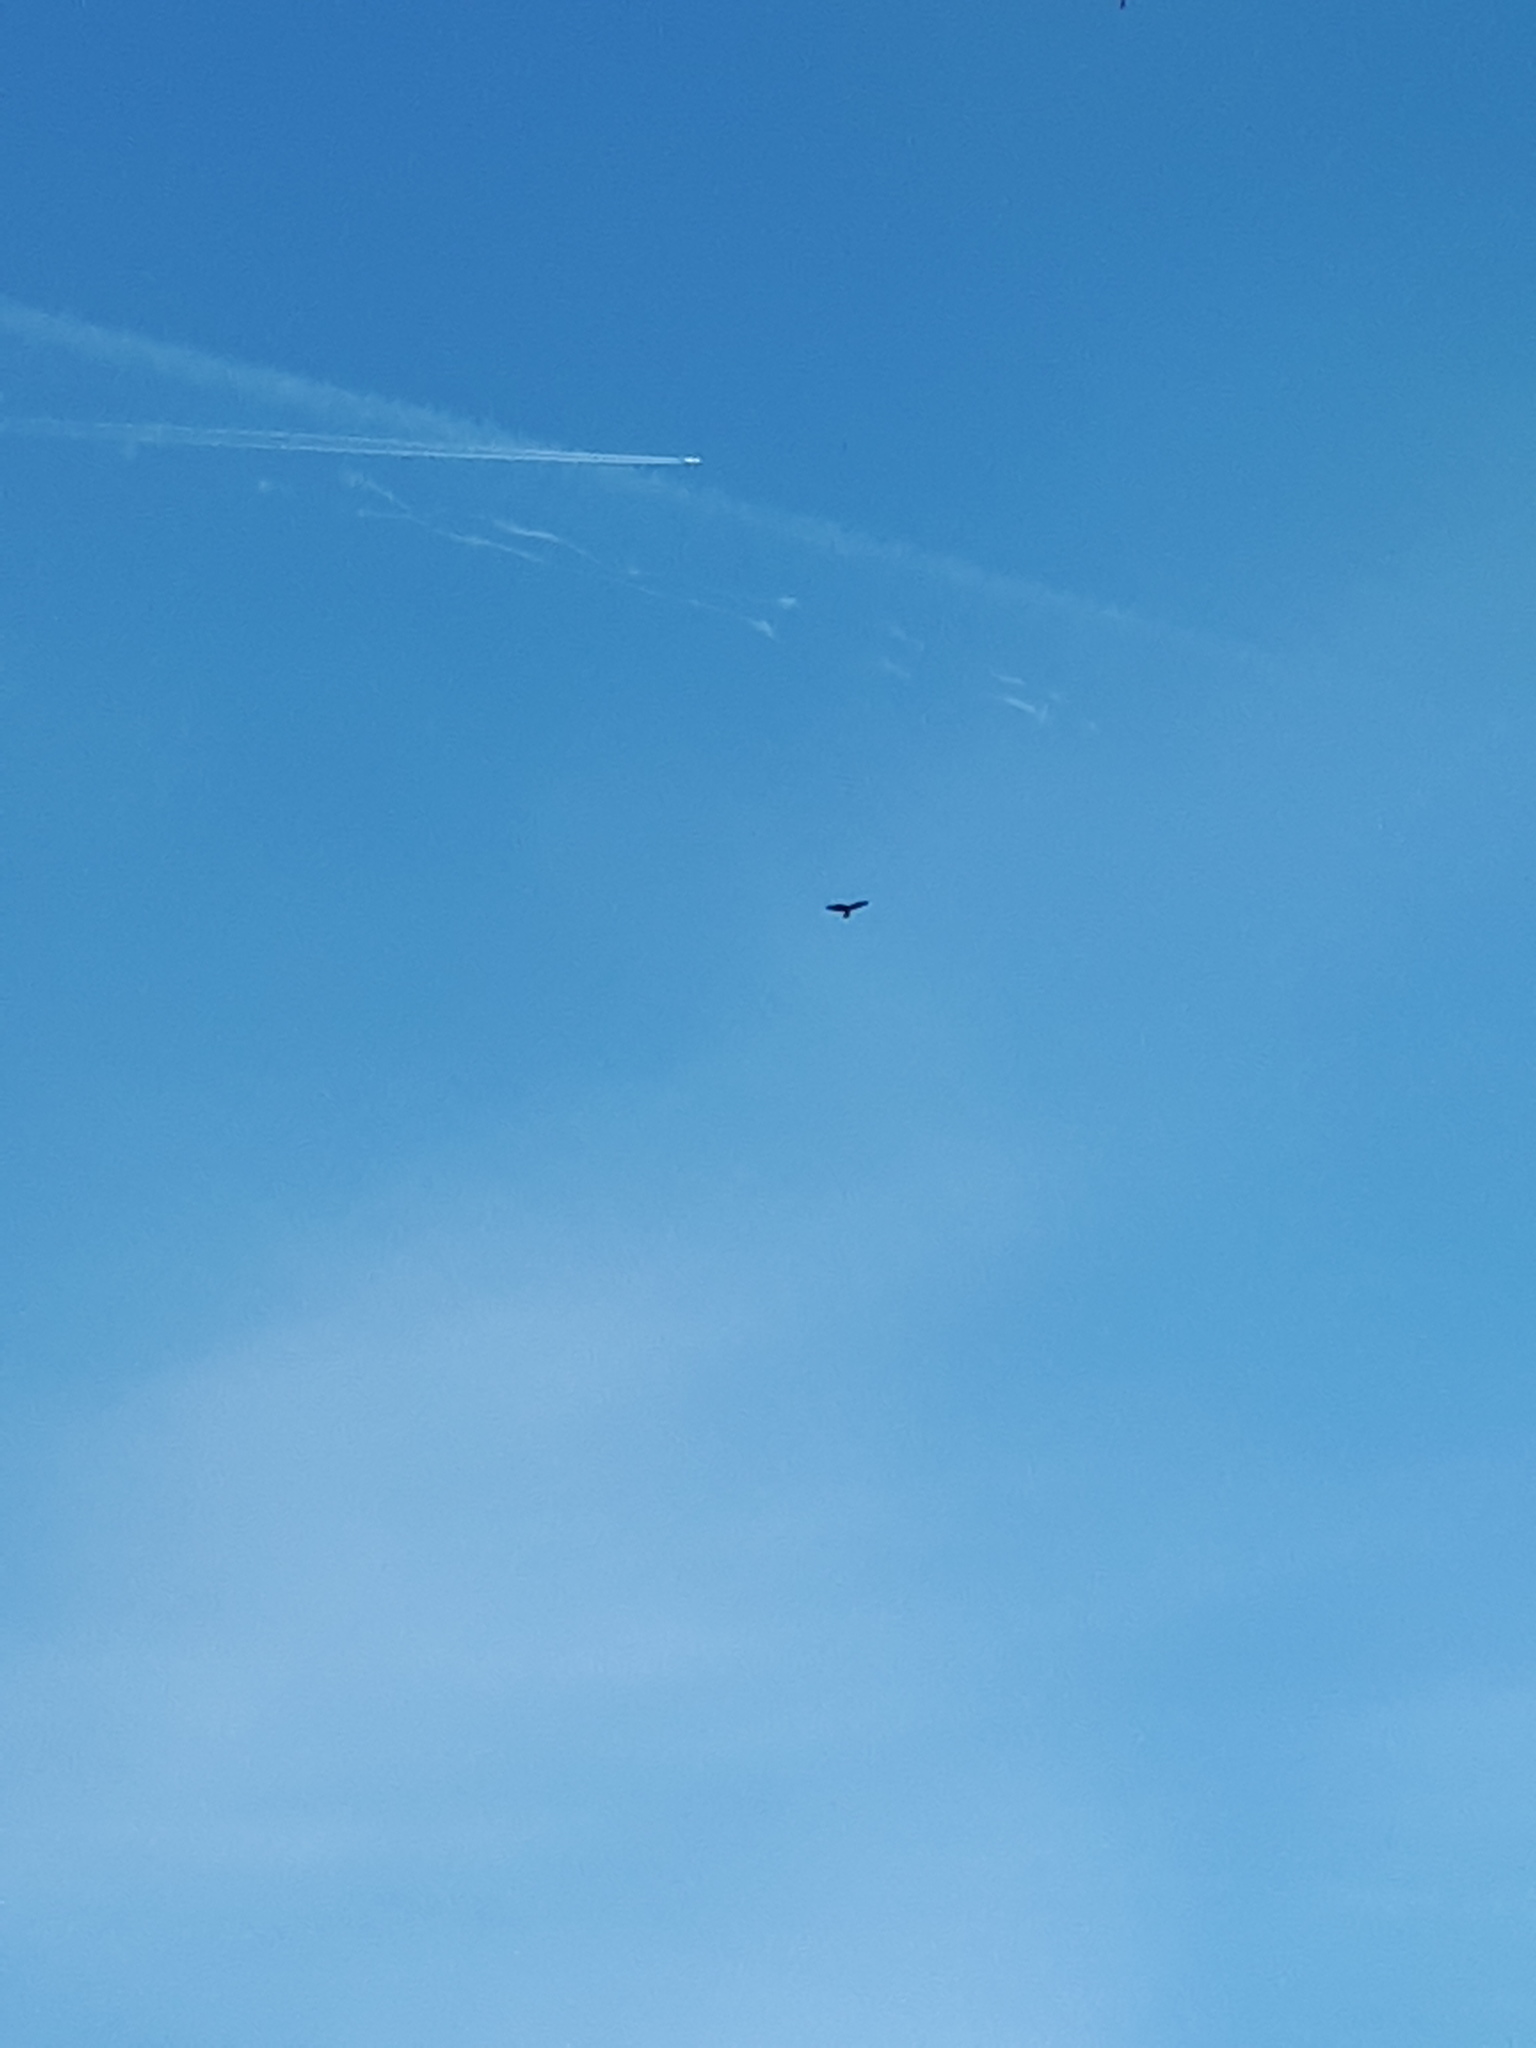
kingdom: Animalia
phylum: Chordata
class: Aves
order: Accipitriformes
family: Accipitridae
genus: Buteo
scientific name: Buteo buteo
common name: Common buzzard
